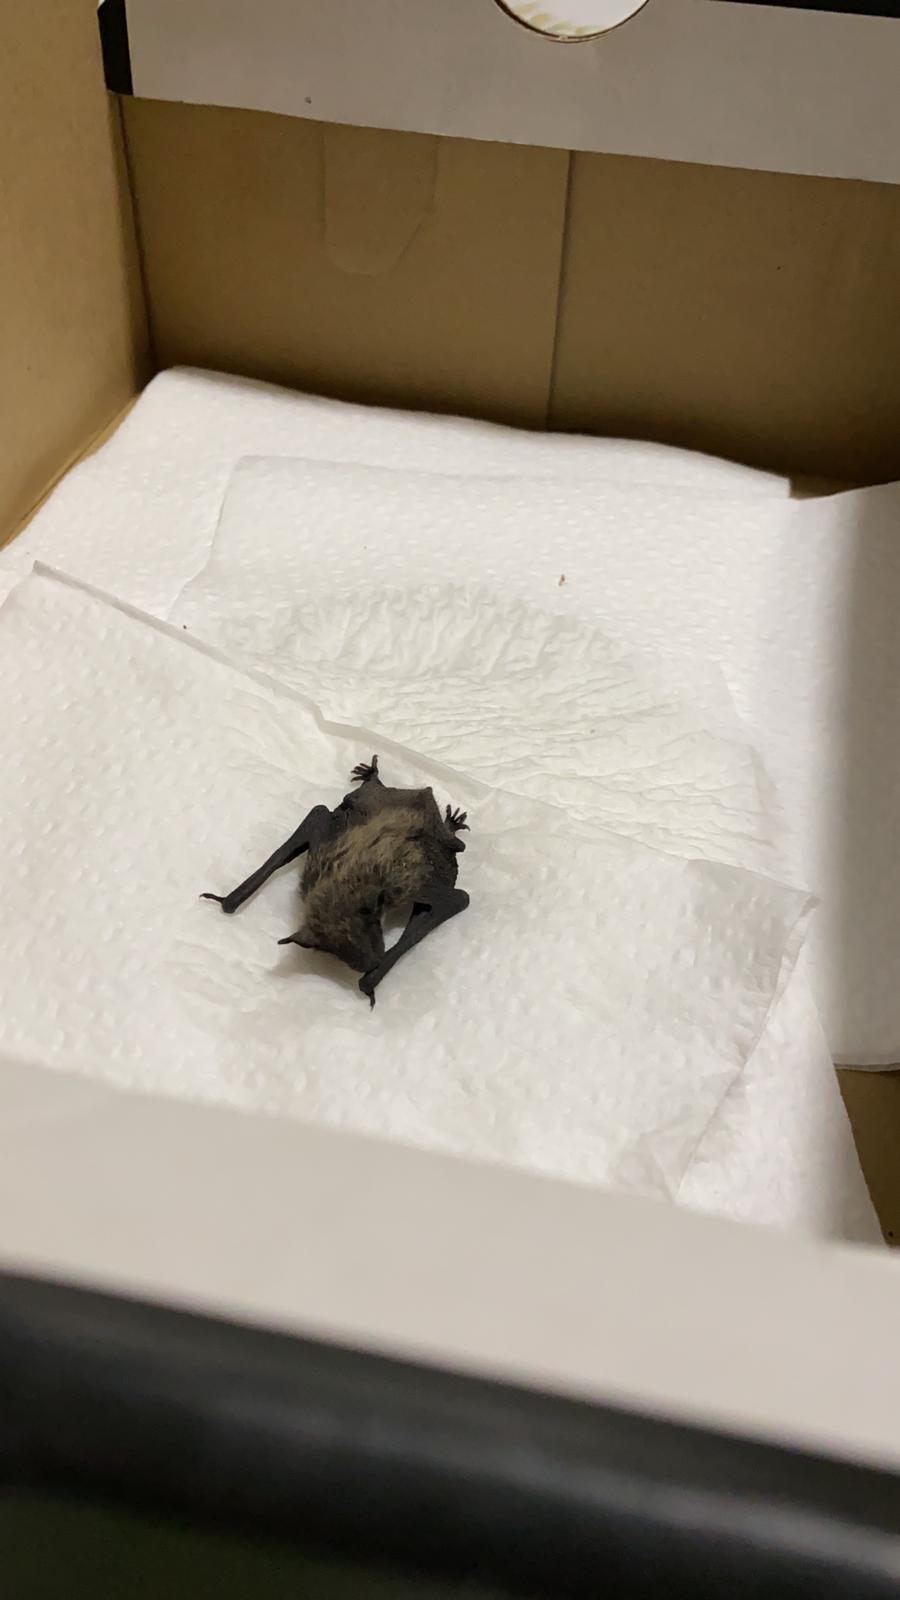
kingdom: Animalia
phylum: Chordata
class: Mammalia
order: Chiroptera
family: Vespertilionidae
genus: Hypsugo
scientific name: Hypsugo savii
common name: Savi's pipistrelle
